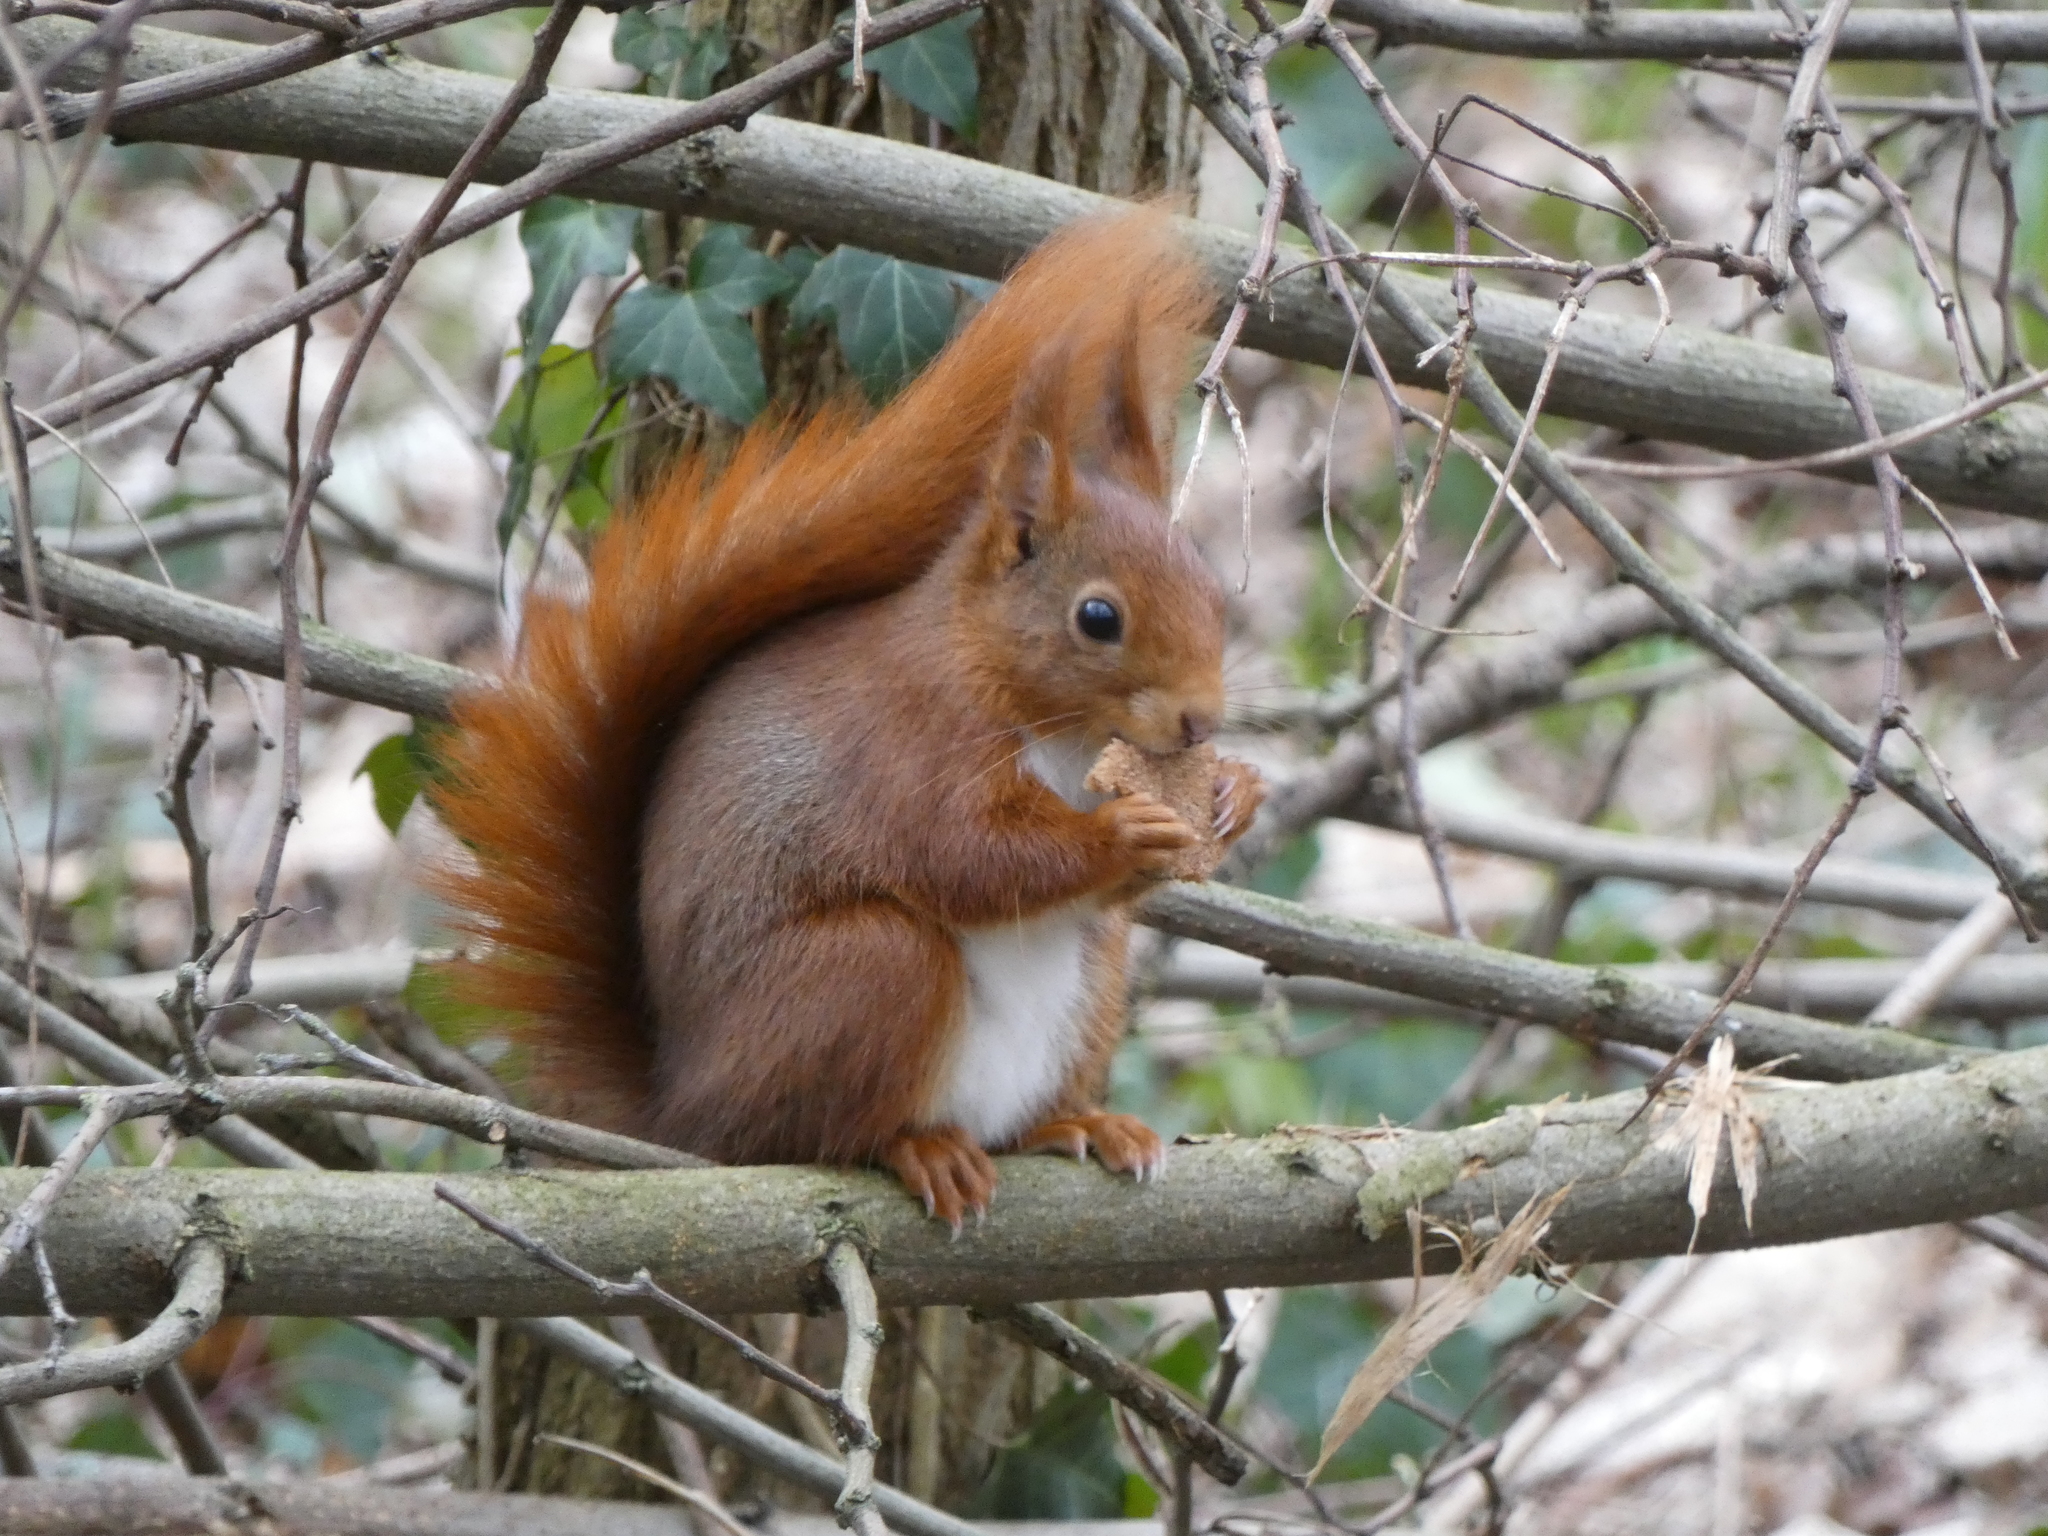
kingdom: Animalia
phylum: Chordata
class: Mammalia
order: Rodentia
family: Sciuridae
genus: Sciurus
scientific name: Sciurus vulgaris
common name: Eurasian red squirrel
